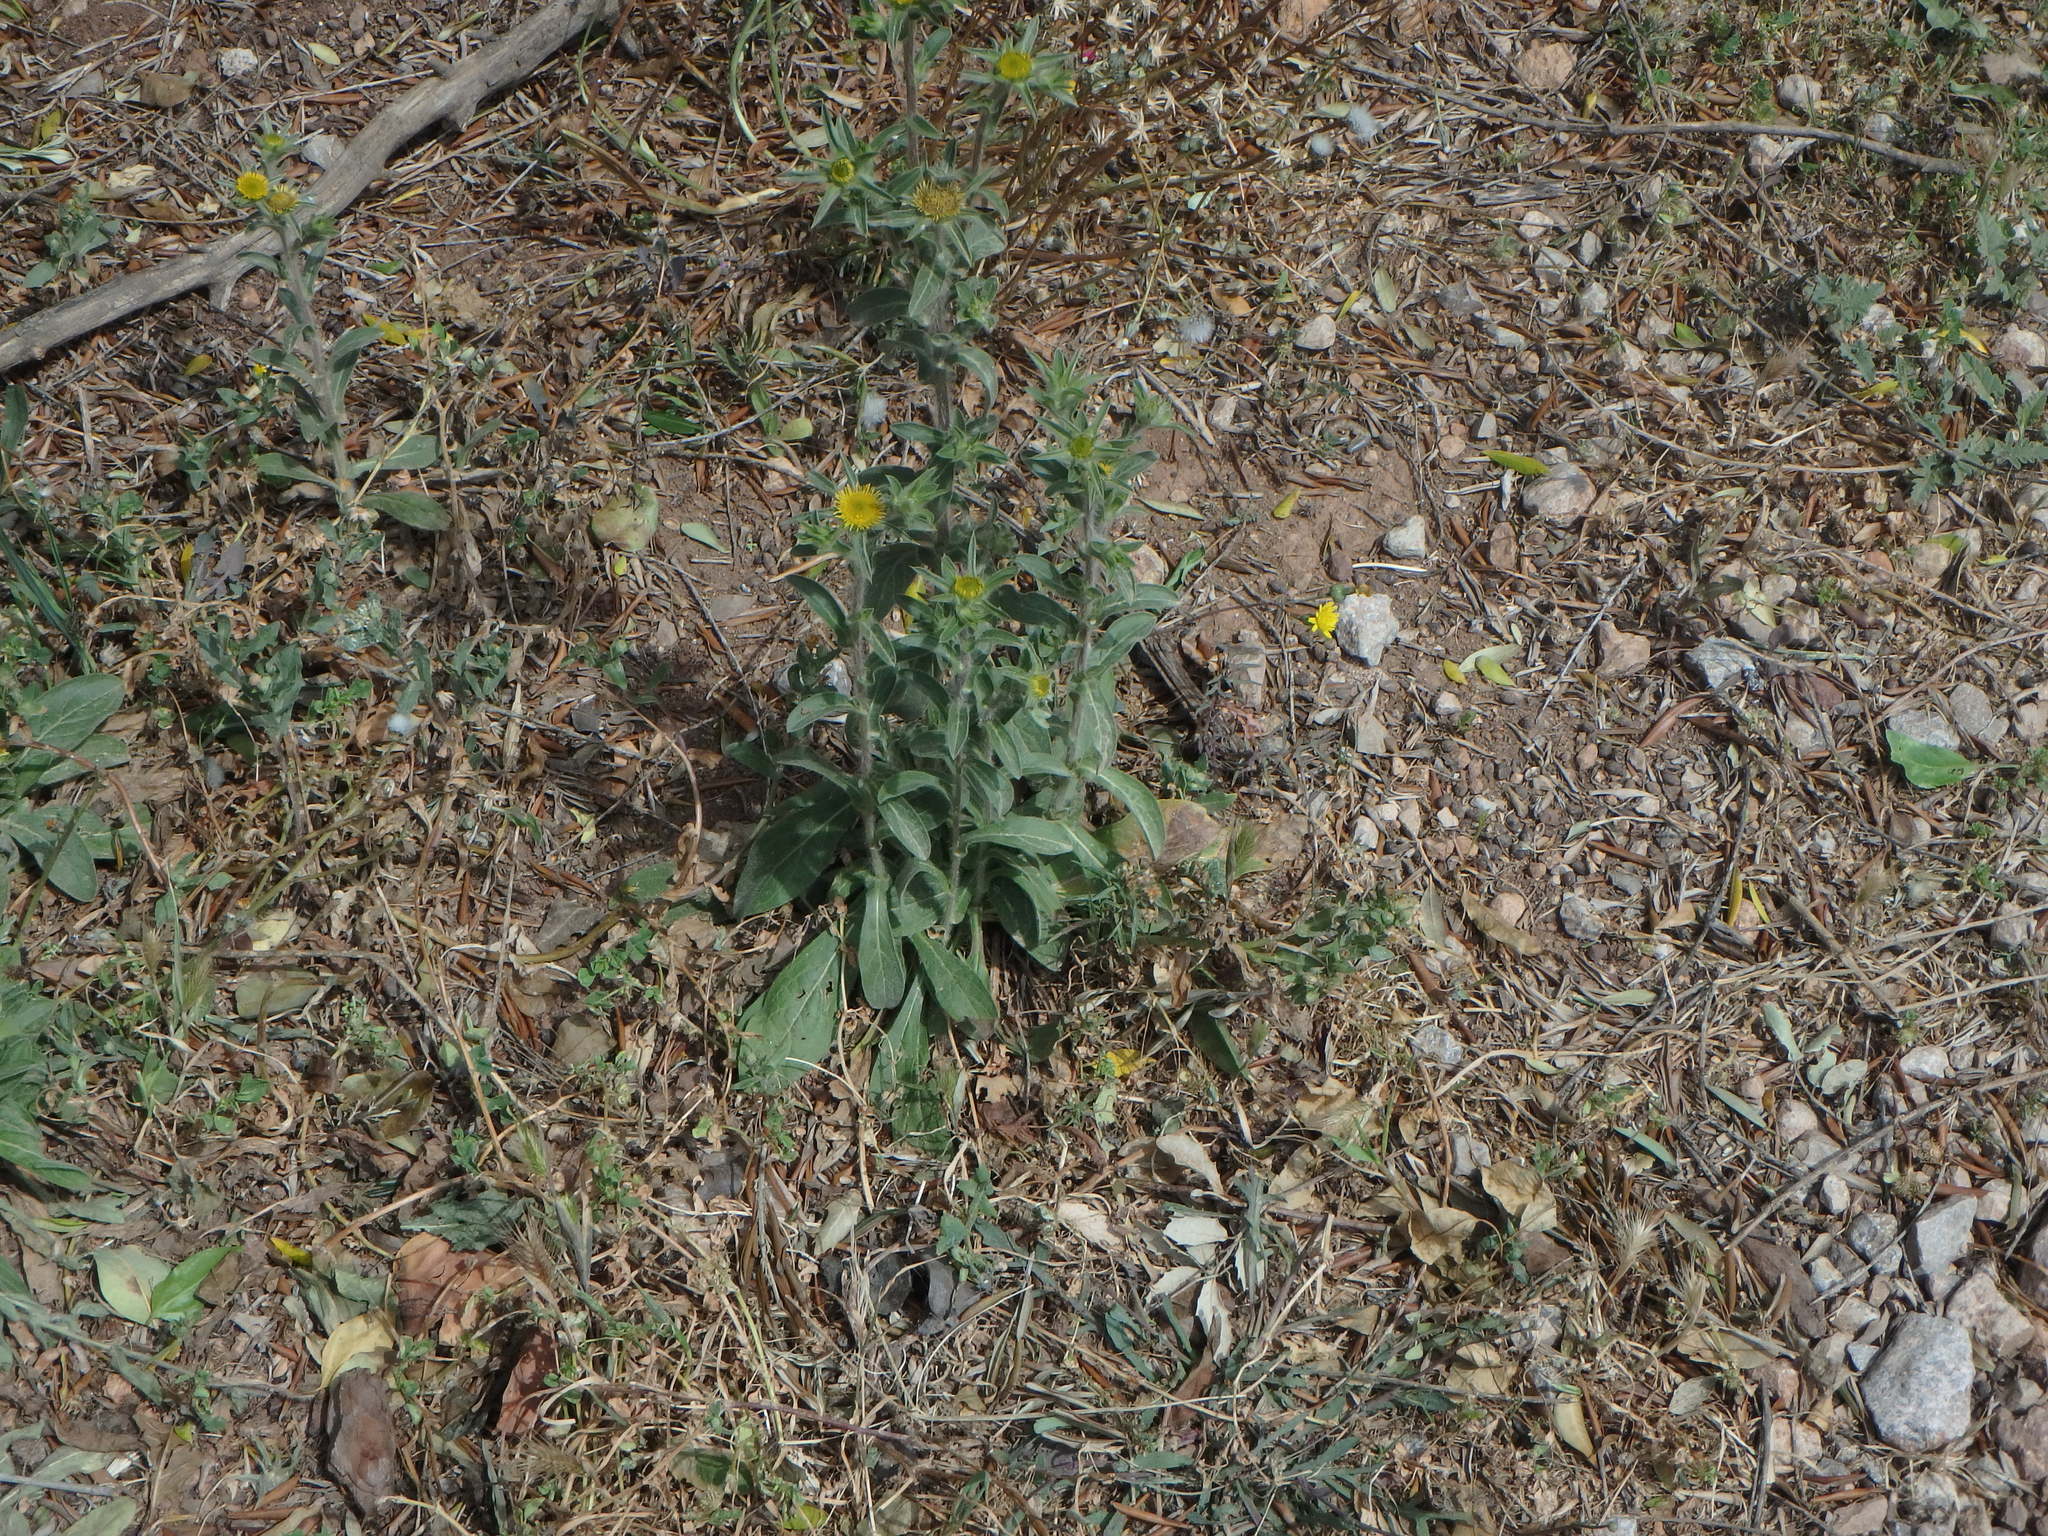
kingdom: Plantae
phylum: Tracheophyta
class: Magnoliopsida
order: Asterales
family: Asteraceae
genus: Pallenis
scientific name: Pallenis spinosa
